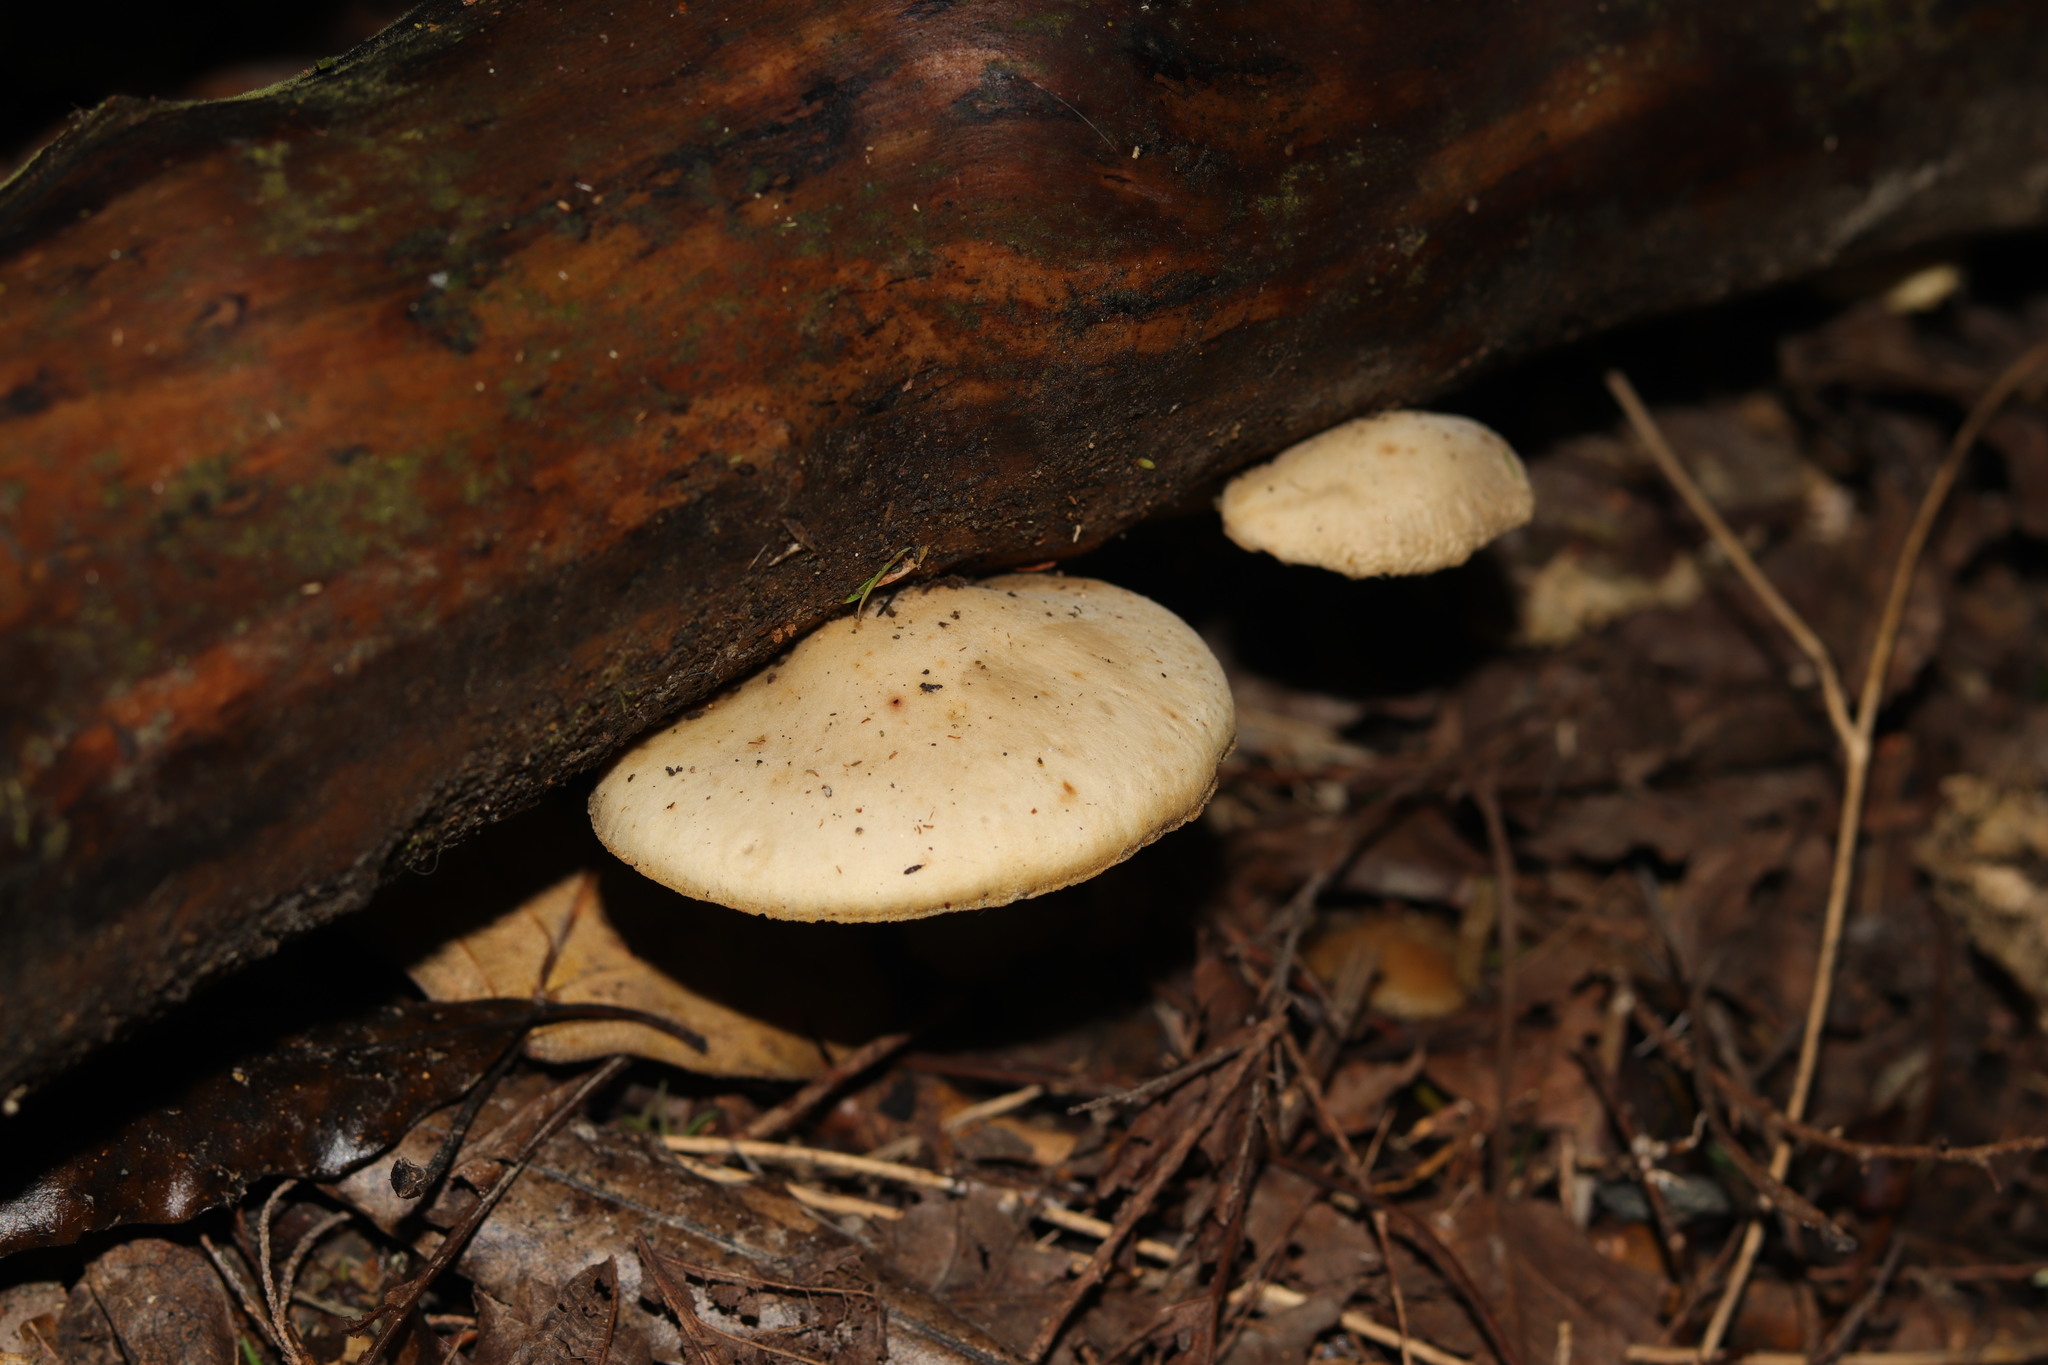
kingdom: Fungi
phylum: Basidiomycota
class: Agaricomycetes
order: Agaricales
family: Tricholomataceae
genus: Conchomyces
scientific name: Conchomyces bursiformis
